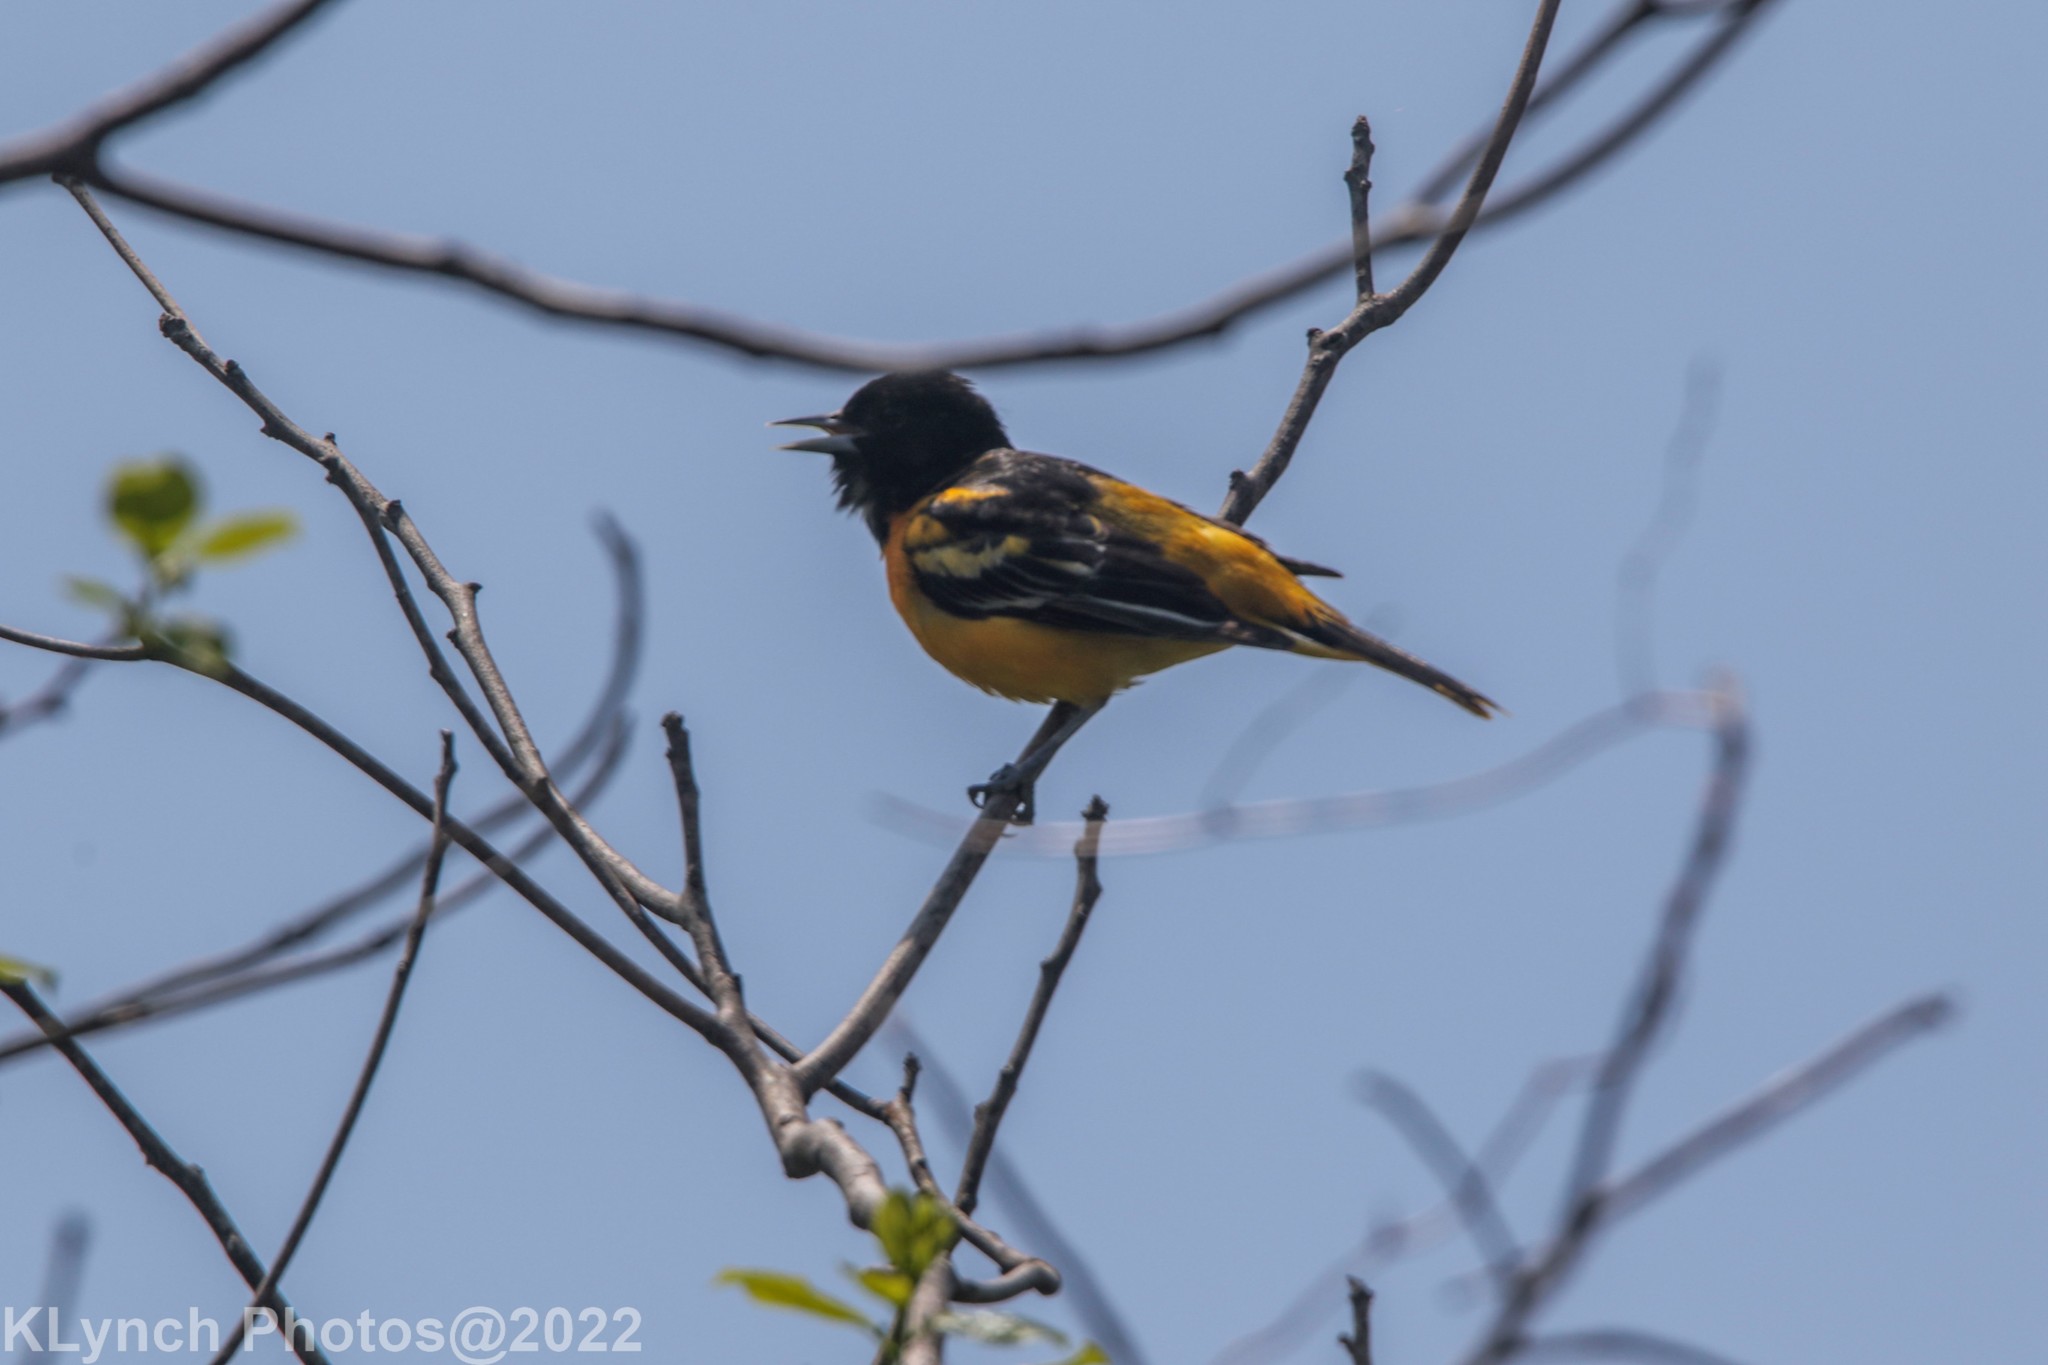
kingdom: Animalia
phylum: Chordata
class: Aves
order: Passeriformes
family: Icteridae
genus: Icterus
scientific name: Icterus galbula
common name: Baltimore oriole
